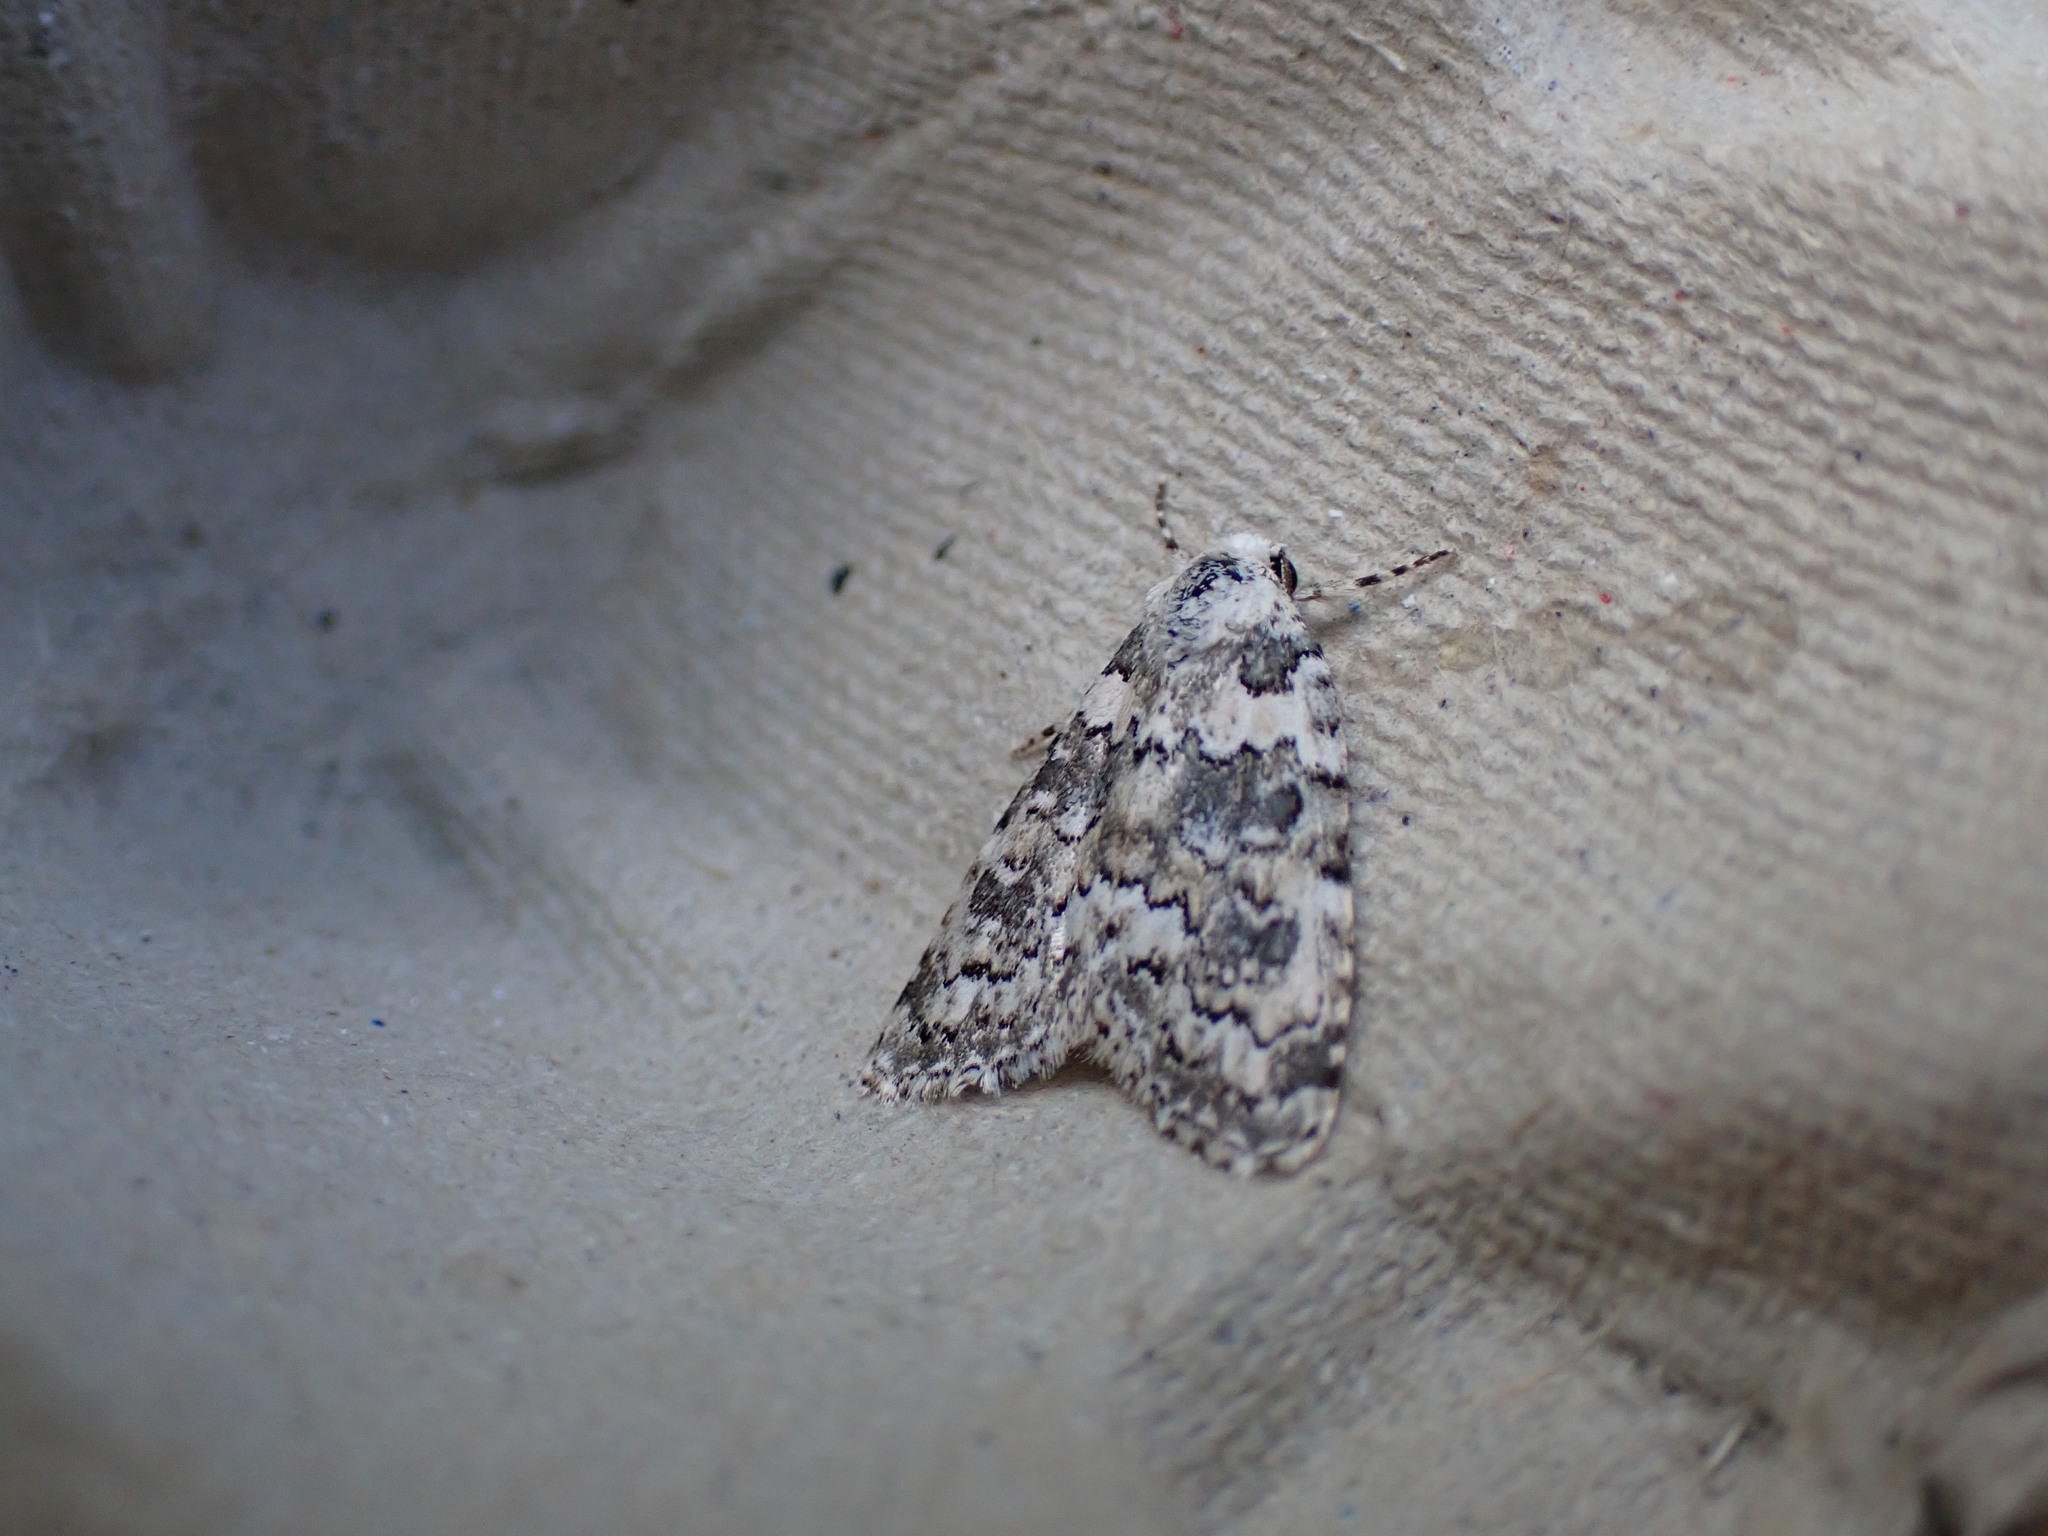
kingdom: Animalia
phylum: Arthropoda
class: Insecta
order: Lepidoptera
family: Noctuidae
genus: Bryophila
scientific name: Bryophila domestica
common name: Marbled beauty
